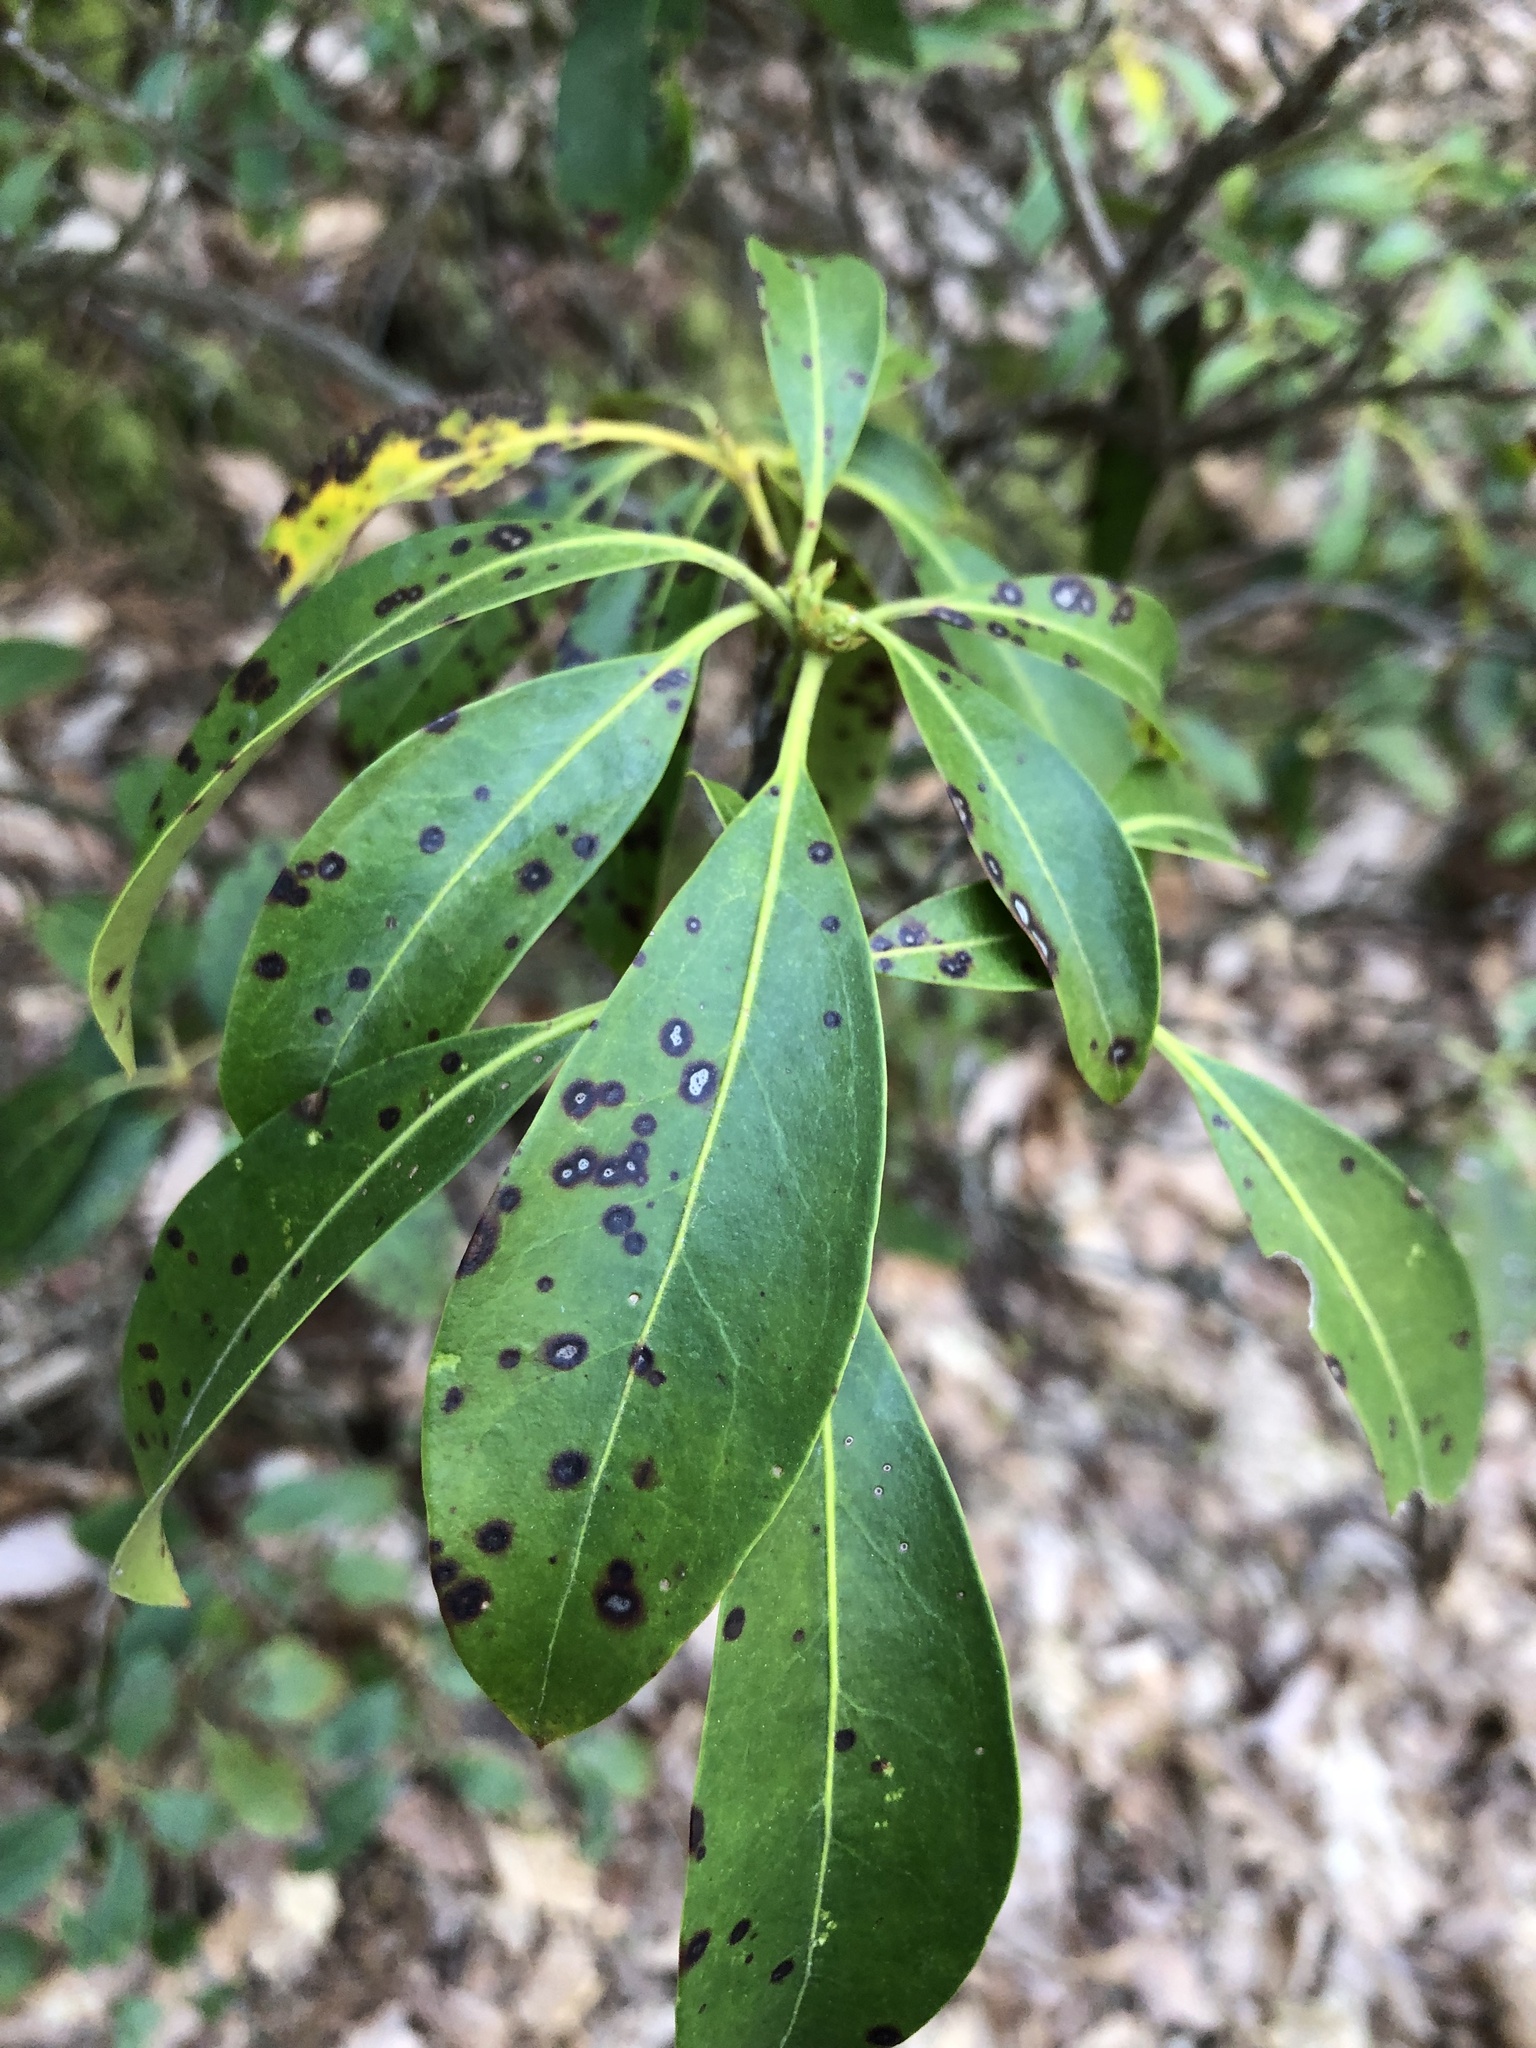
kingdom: Plantae
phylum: Tracheophyta
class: Magnoliopsida
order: Ericales
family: Ericaceae
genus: Kalmia
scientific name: Kalmia latifolia
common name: Mountain-laurel
